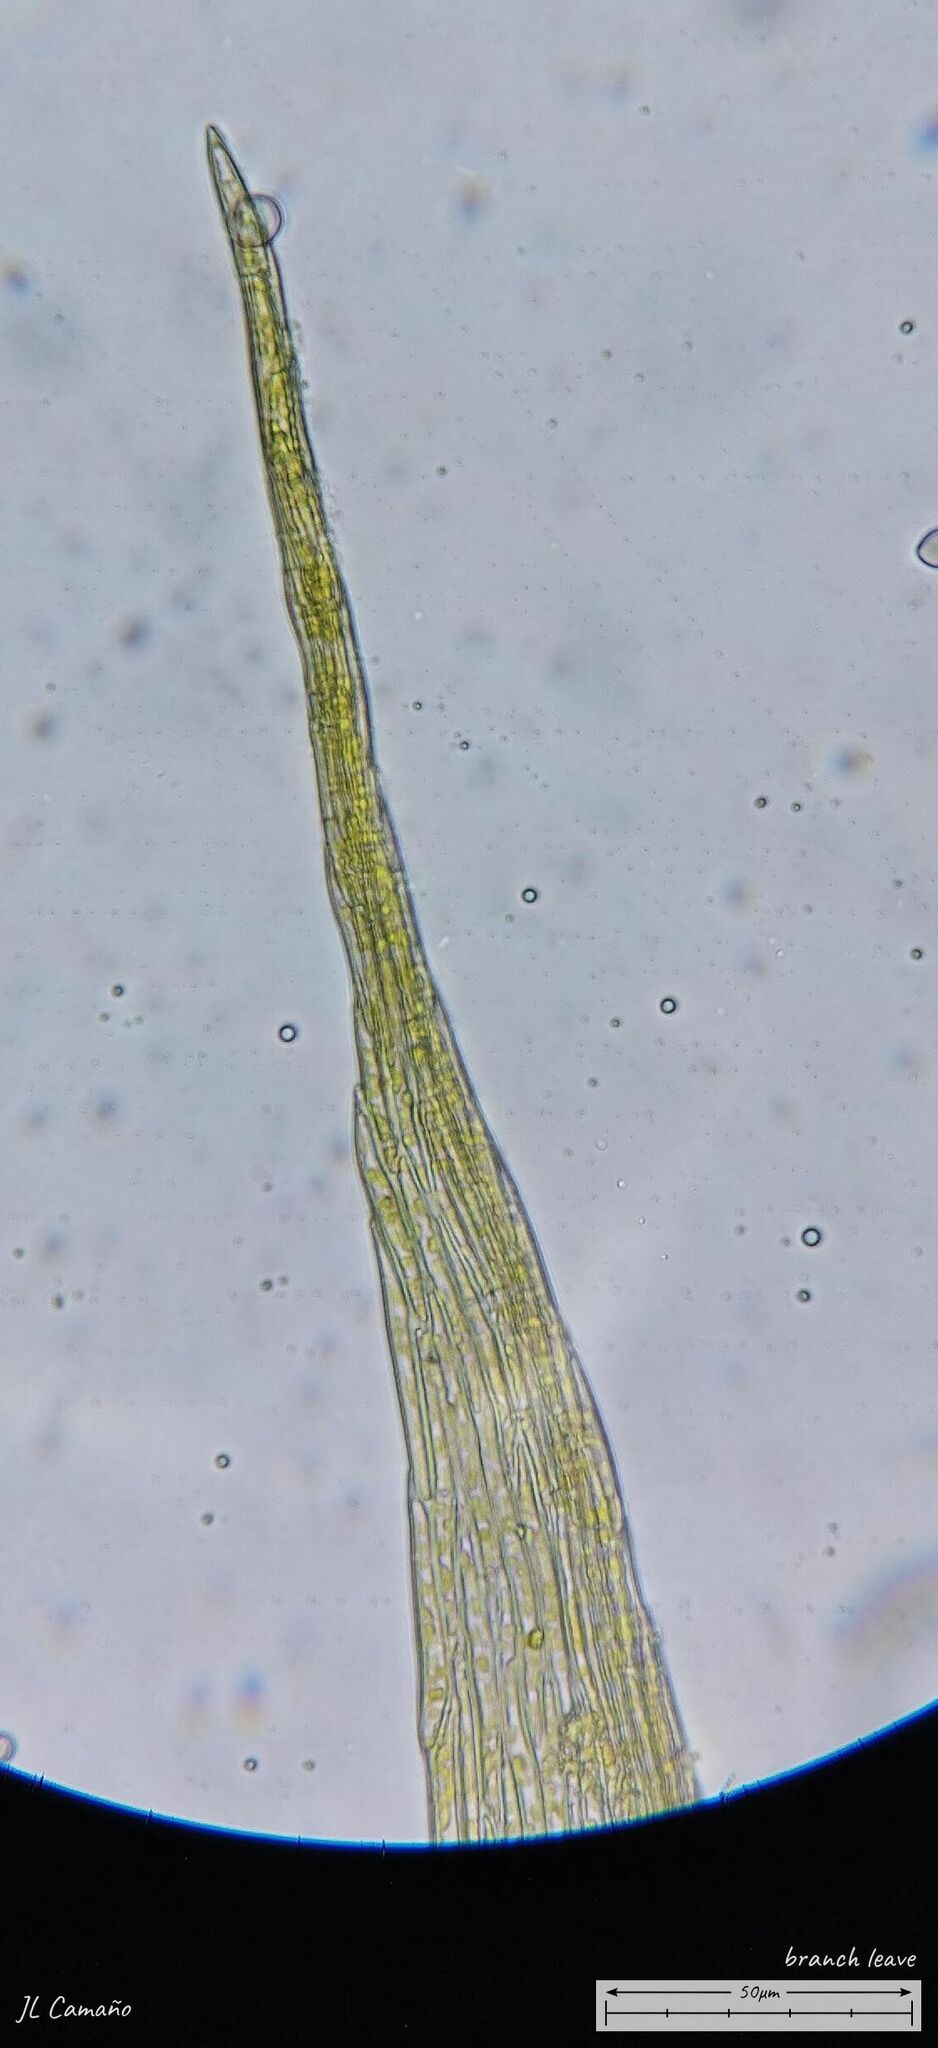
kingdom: Plantae
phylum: Bryophyta
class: Bryopsida
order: Hypnales
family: Brachytheciaceae
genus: Rhynchostegiella
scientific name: Rhynchostegiella tenella
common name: Tender feather-moss
